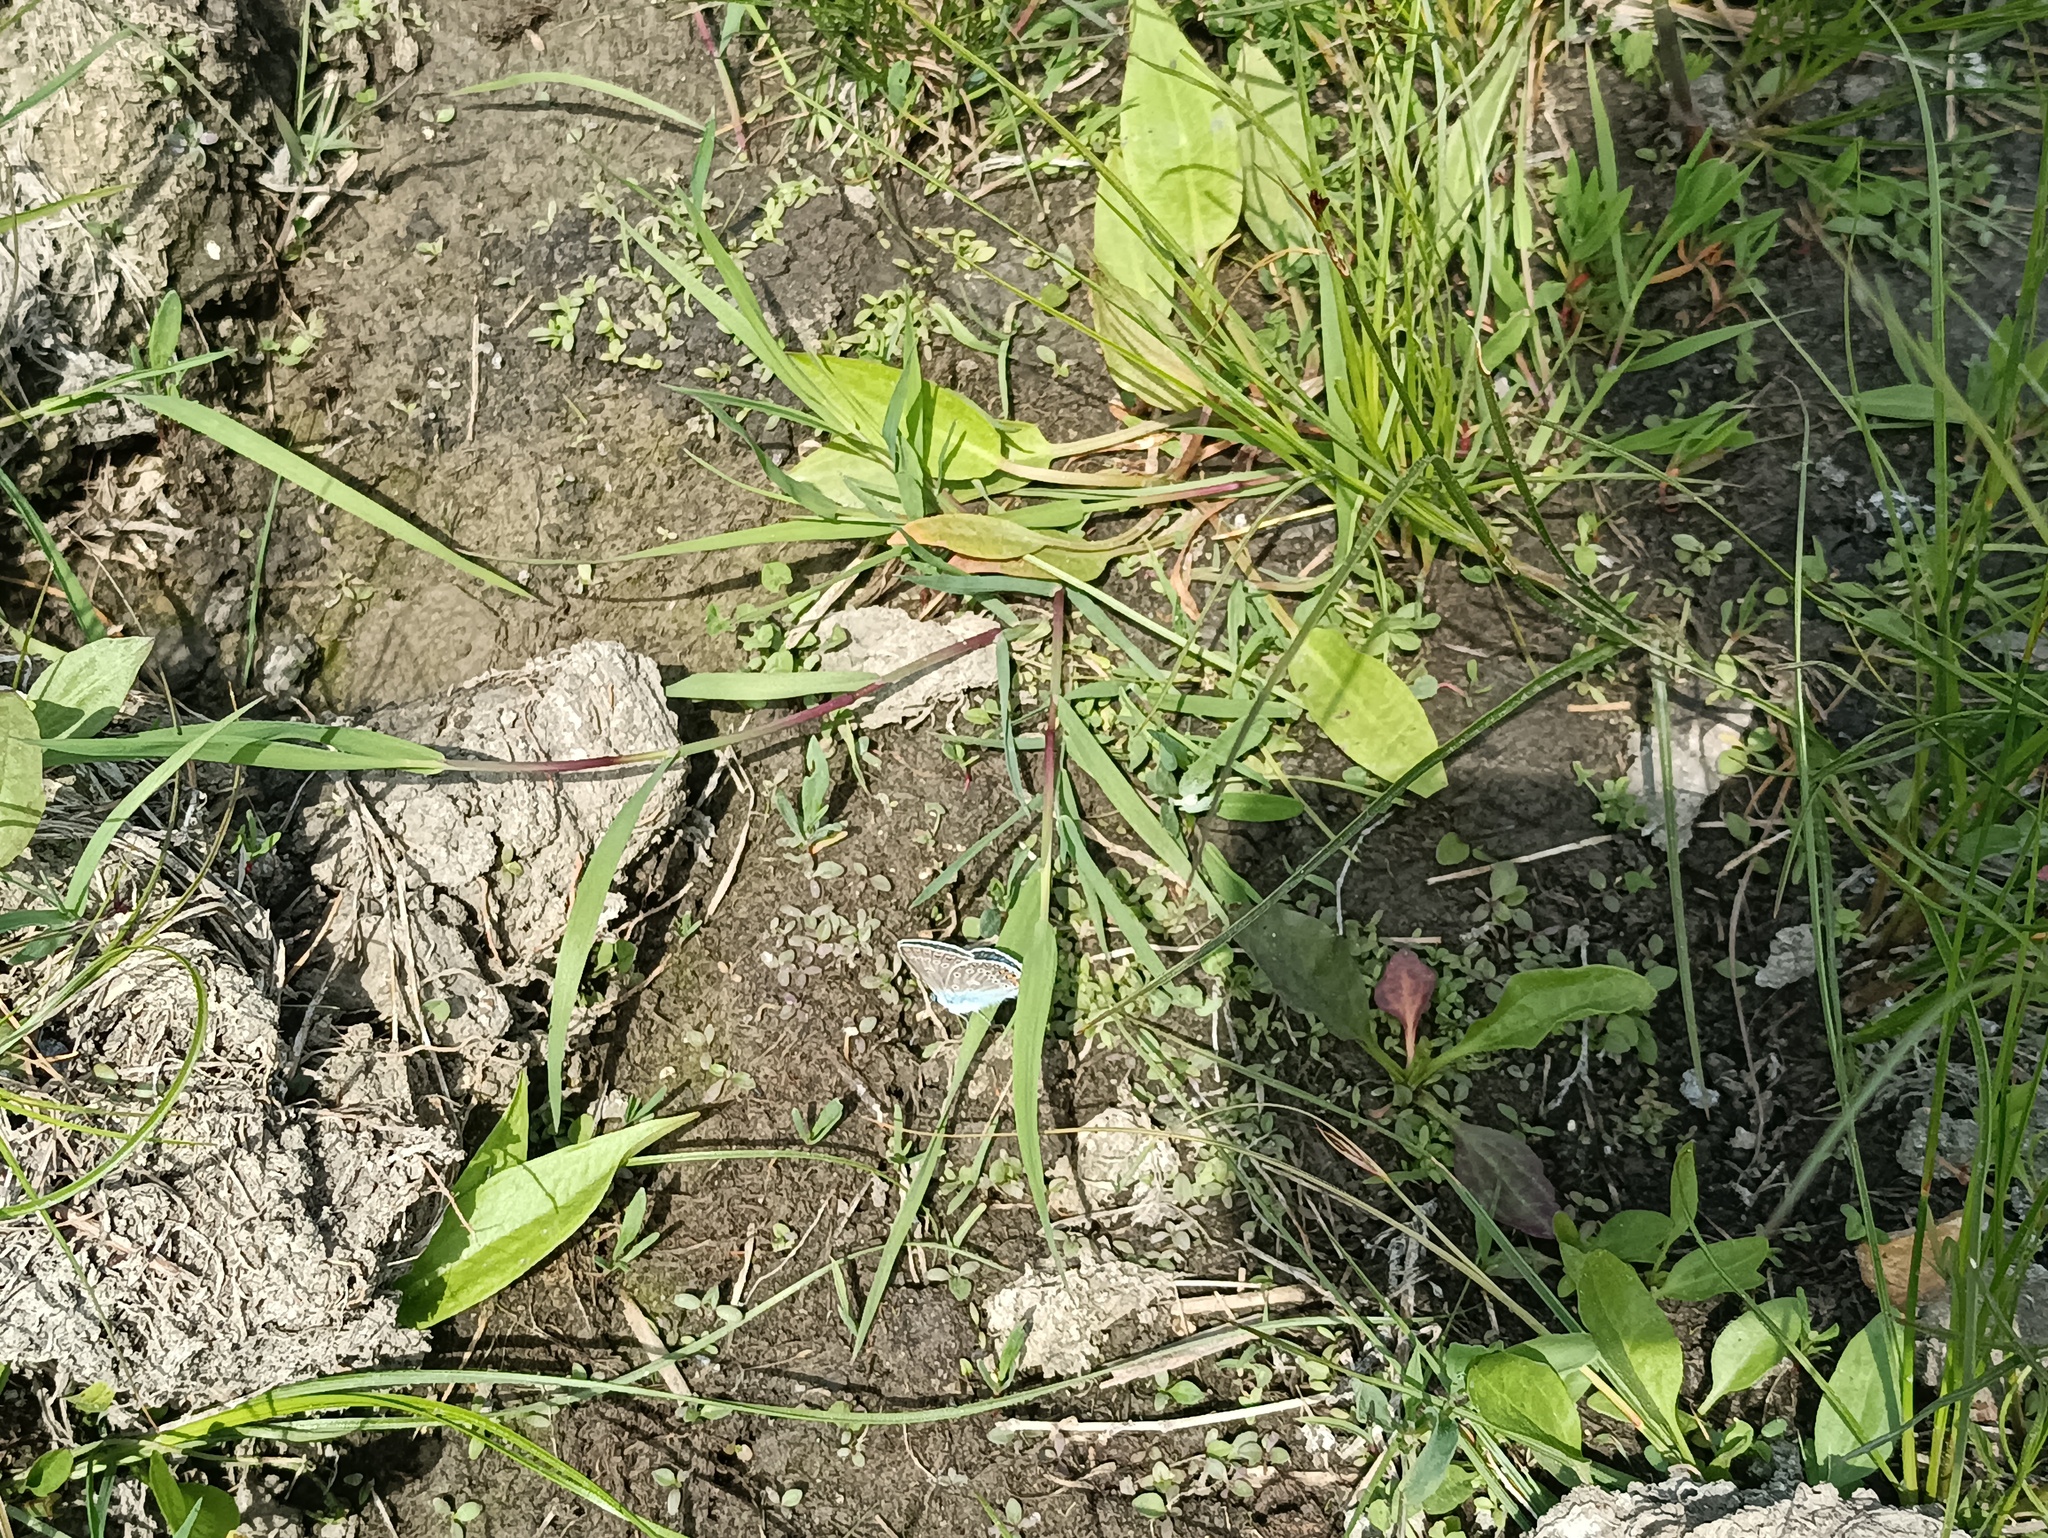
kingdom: Animalia
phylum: Arthropoda
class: Insecta
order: Lepidoptera
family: Lycaenidae
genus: Polyommatus
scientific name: Polyommatus icarus
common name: Common blue
